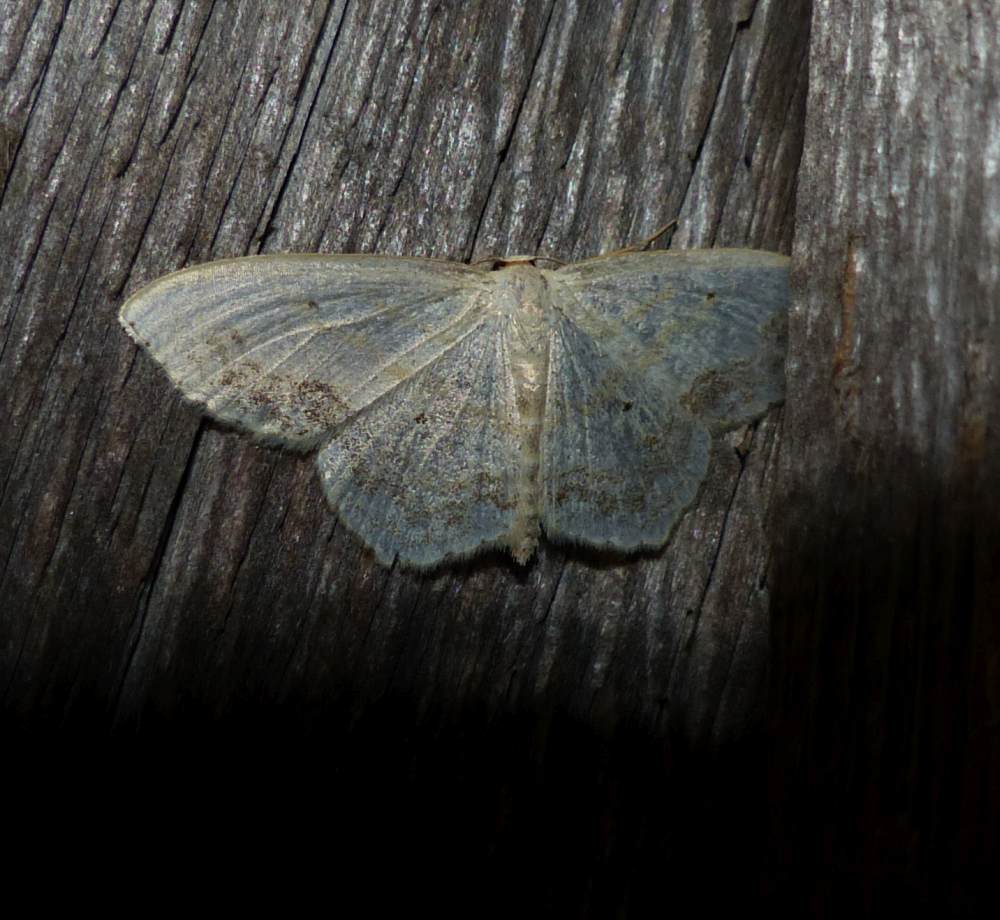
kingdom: Animalia
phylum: Arthropoda
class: Insecta
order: Lepidoptera
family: Geometridae
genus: Scopula
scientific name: Scopula limboundata
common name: Large lace border
